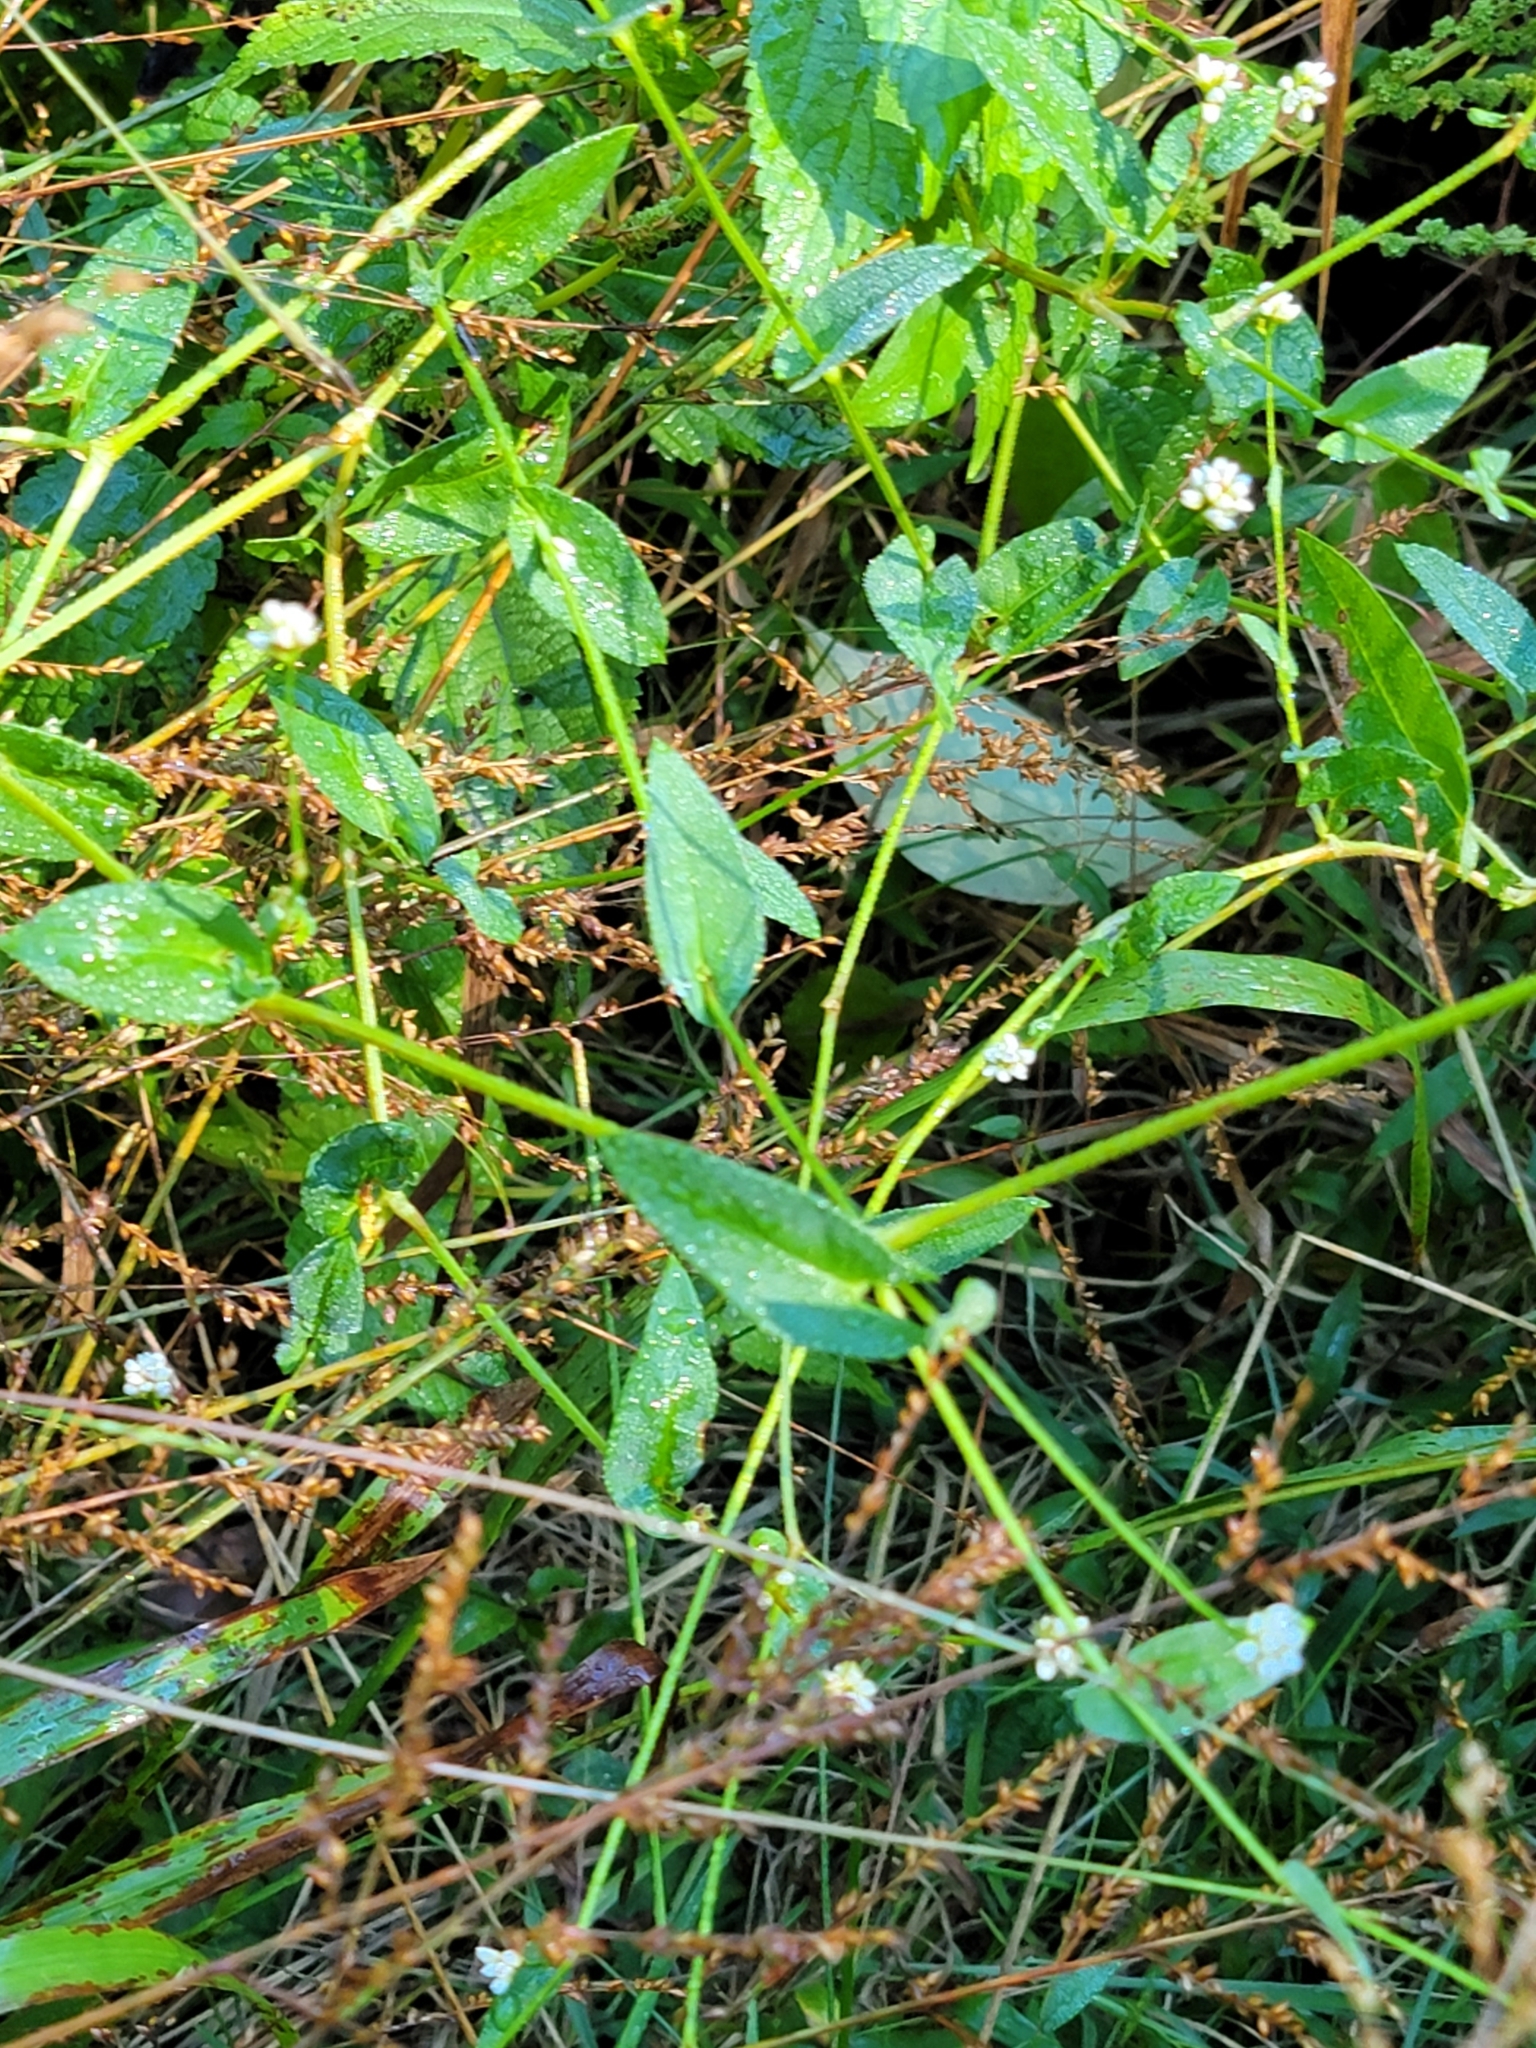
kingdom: Plantae
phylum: Tracheophyta
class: Magnoliopsida
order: Caryophyllales
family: Polygonaceae
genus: Persicaria
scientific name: Persicaria sagittata
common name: American tearthumb
